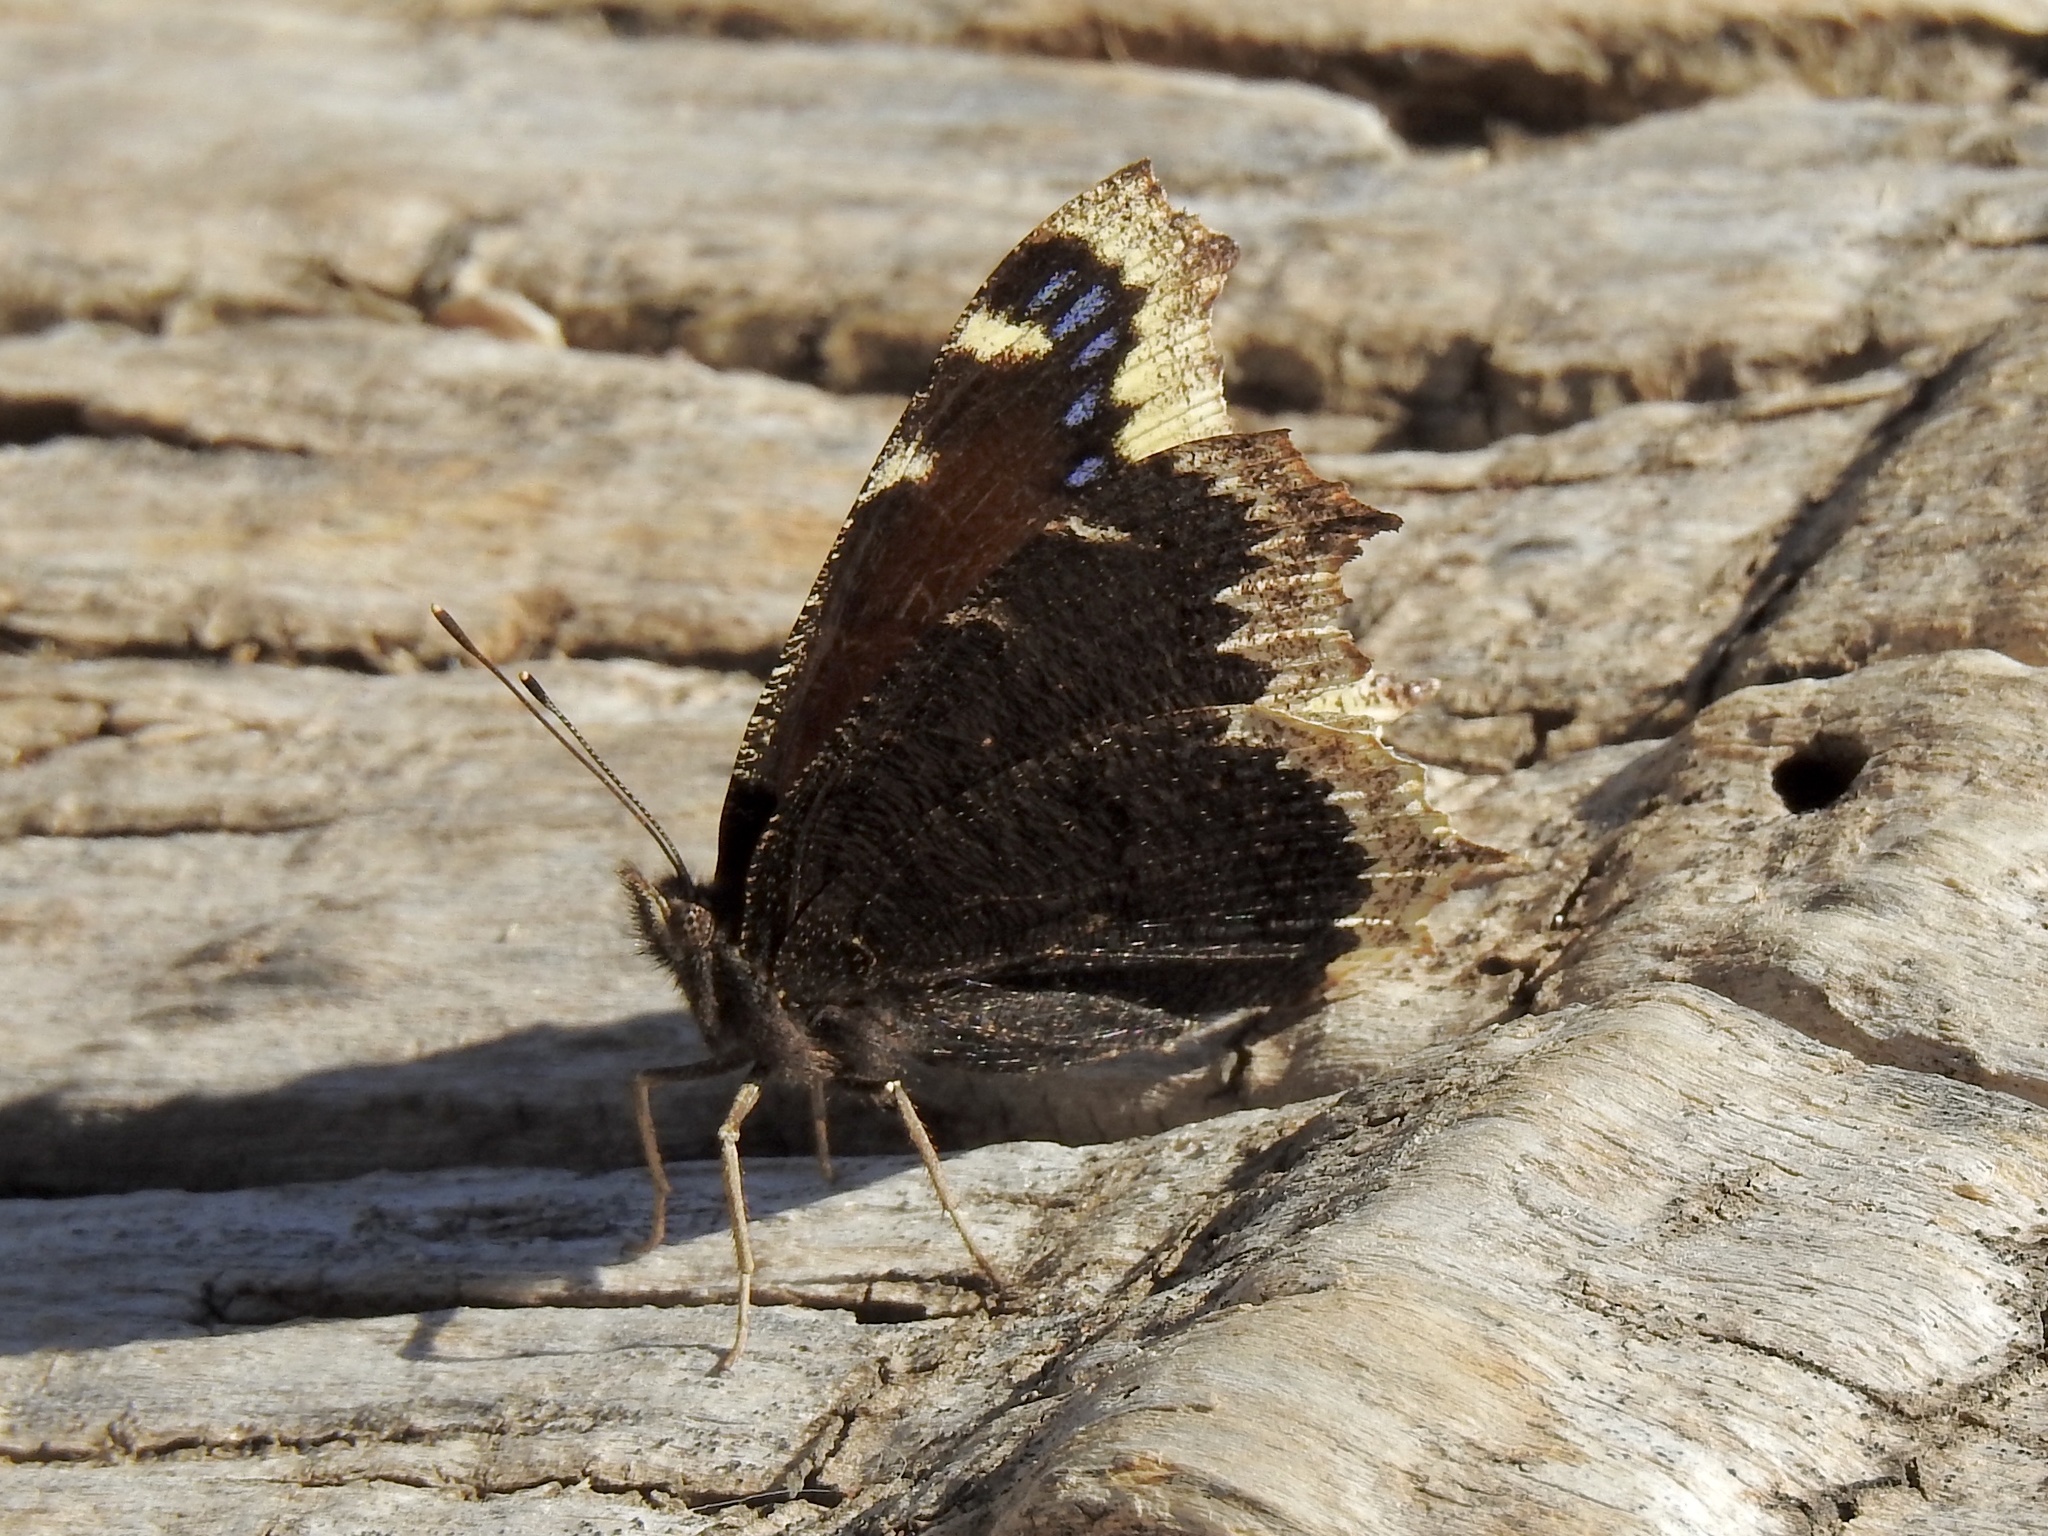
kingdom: Animalia
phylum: Arthropoda
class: Insecta
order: Lepidoptera
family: Nymphalidae
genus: Nymphalis
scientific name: Nymphalis antiopa
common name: Camberwell beauty
